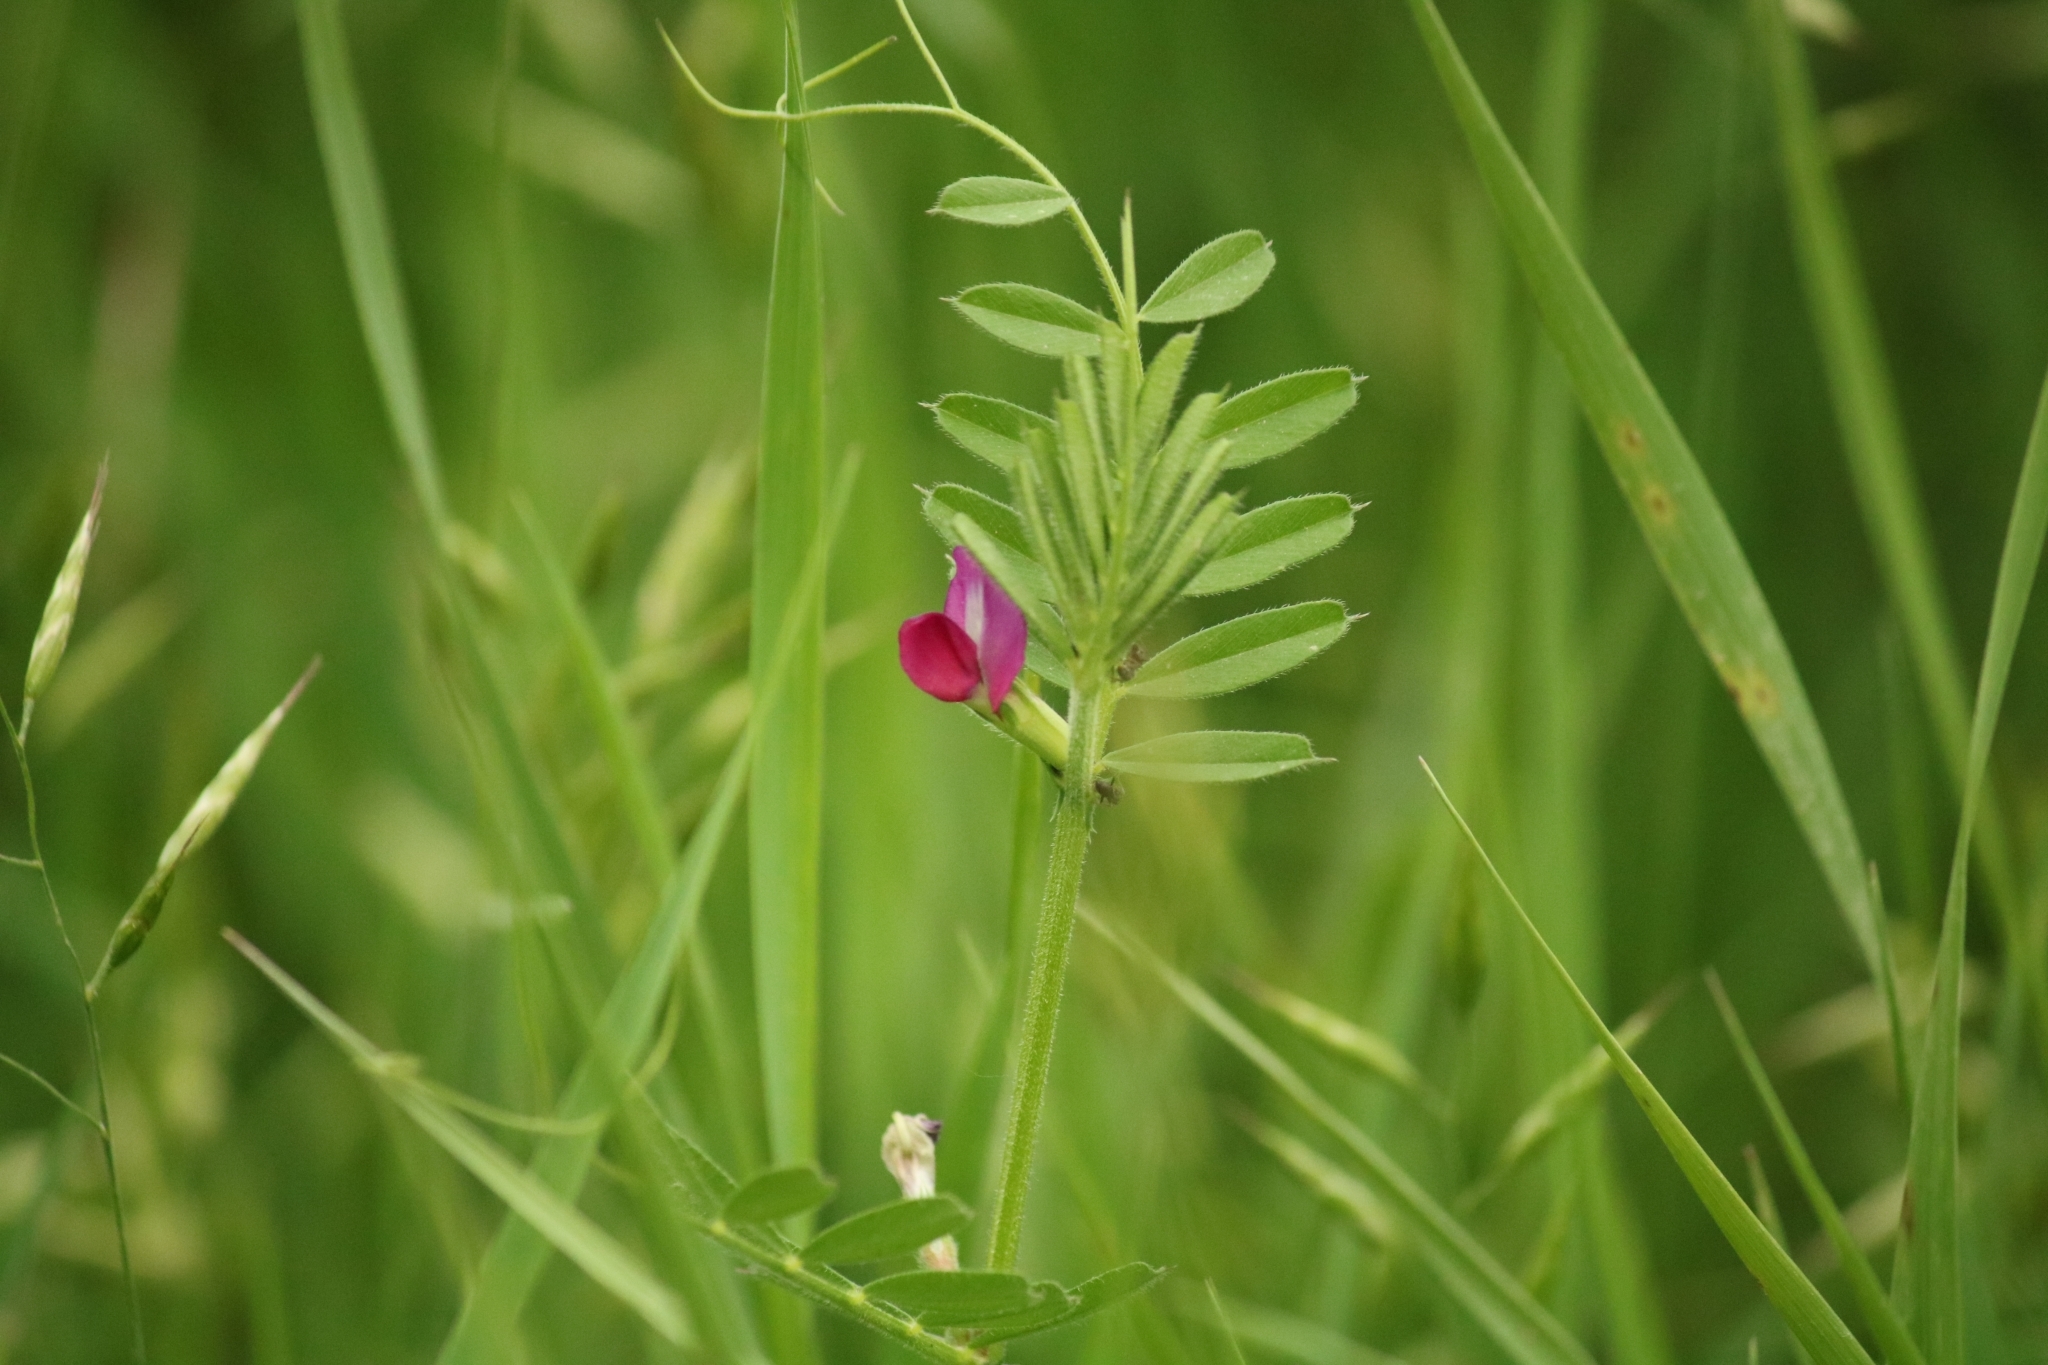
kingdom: Plantae
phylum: Tracheophyta
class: Magnoliopsida
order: Fabales
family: Fabaceae
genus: Vicia
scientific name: Vicia sativa
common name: Garden vetch
